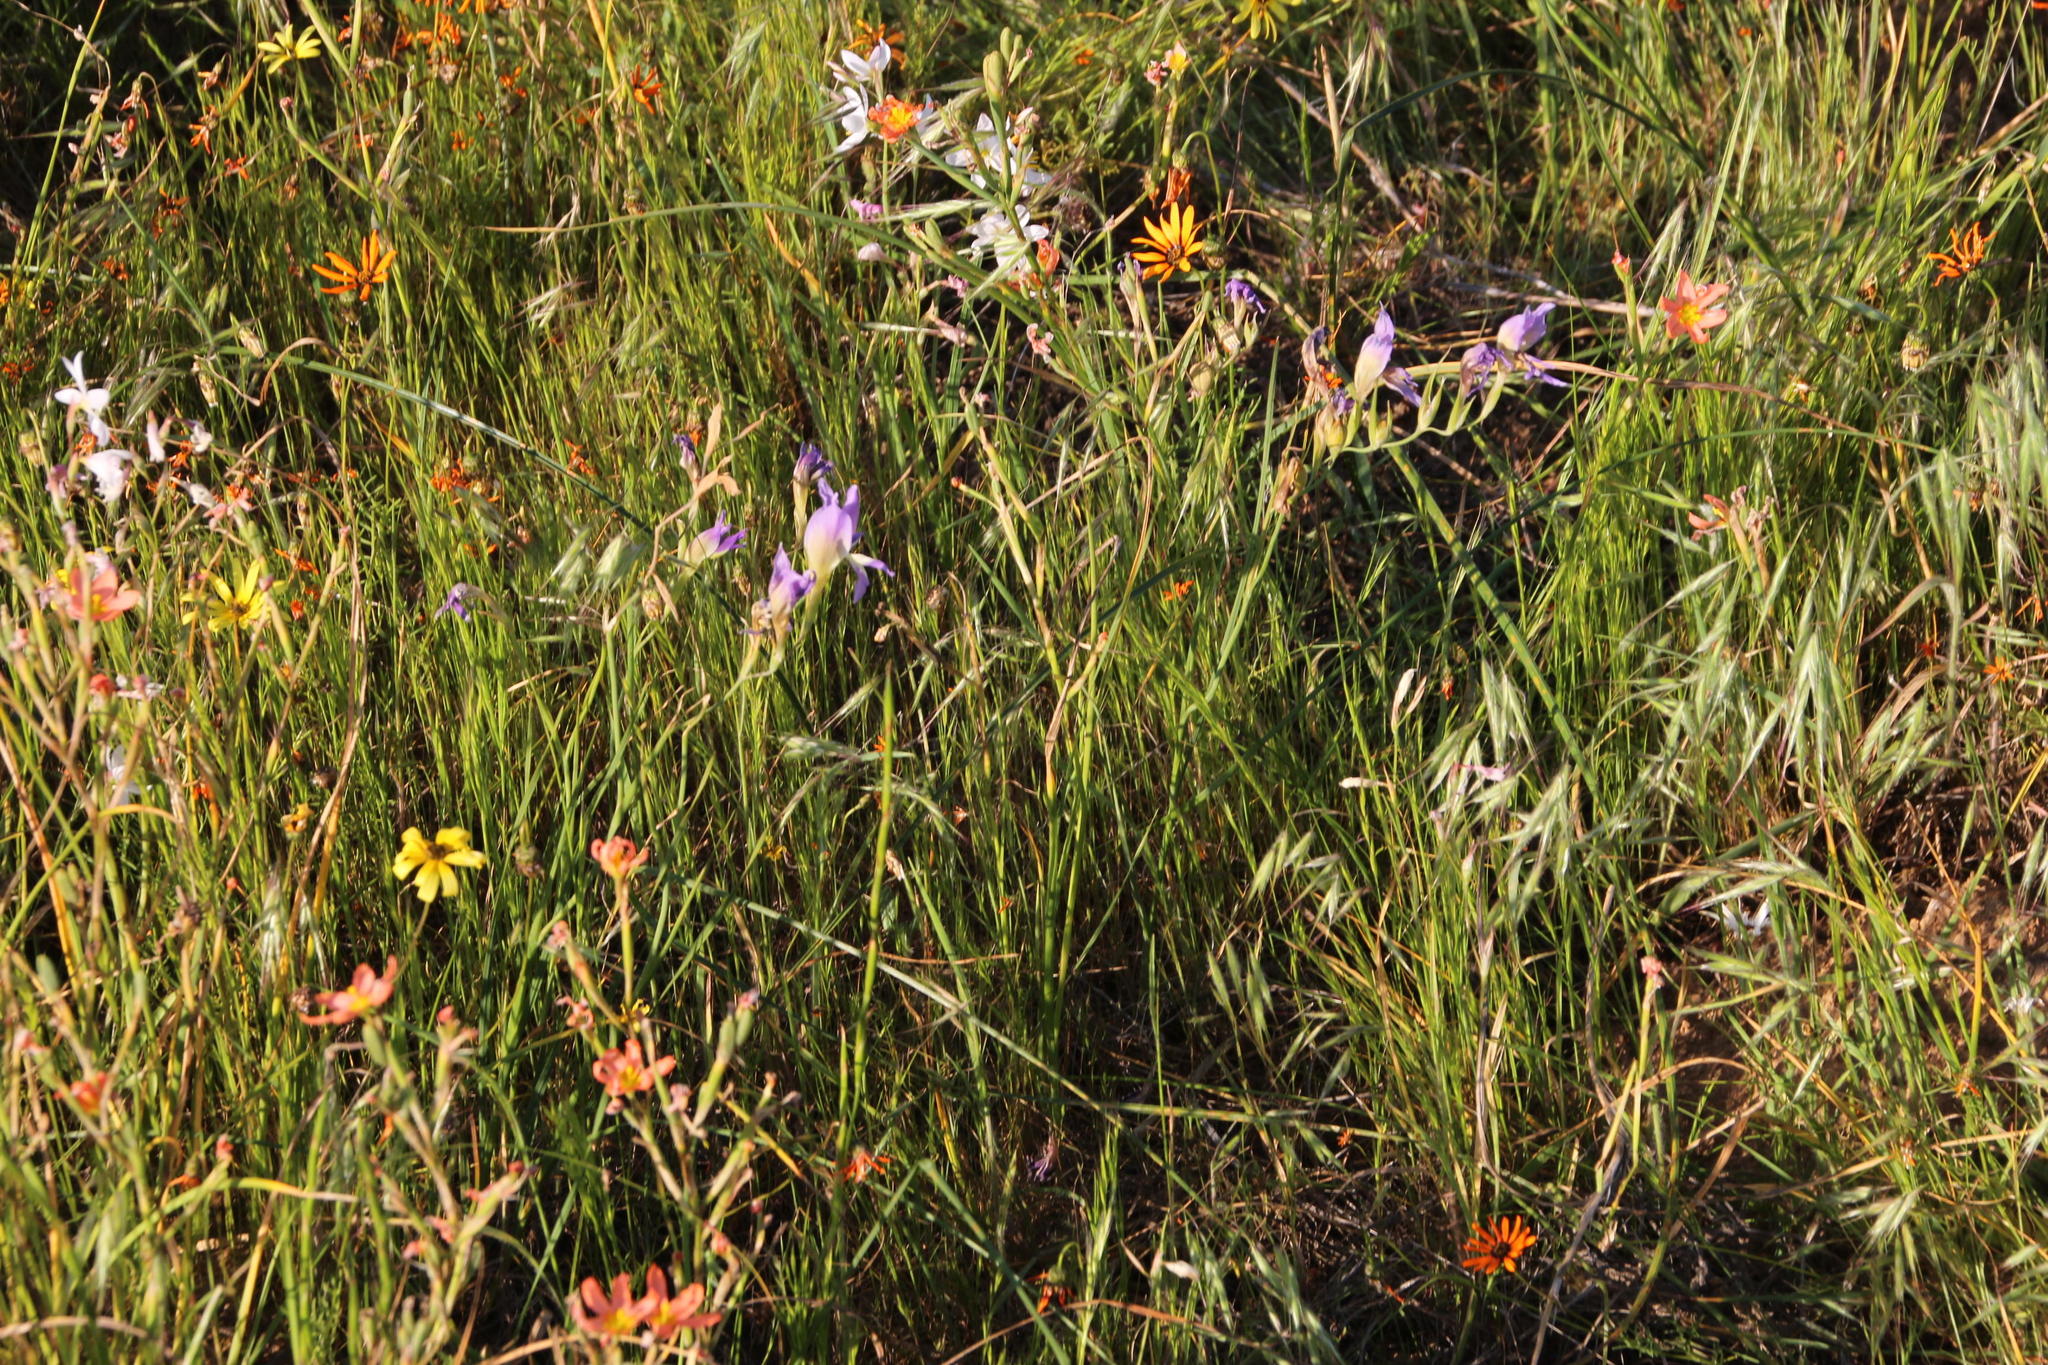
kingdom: Plantae
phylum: Tracheophyta
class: Liliopsida
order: Asparagales
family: Iridaceae
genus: Gladiolus
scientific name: Gladiolus venustus
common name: Purple kalkoentjie
